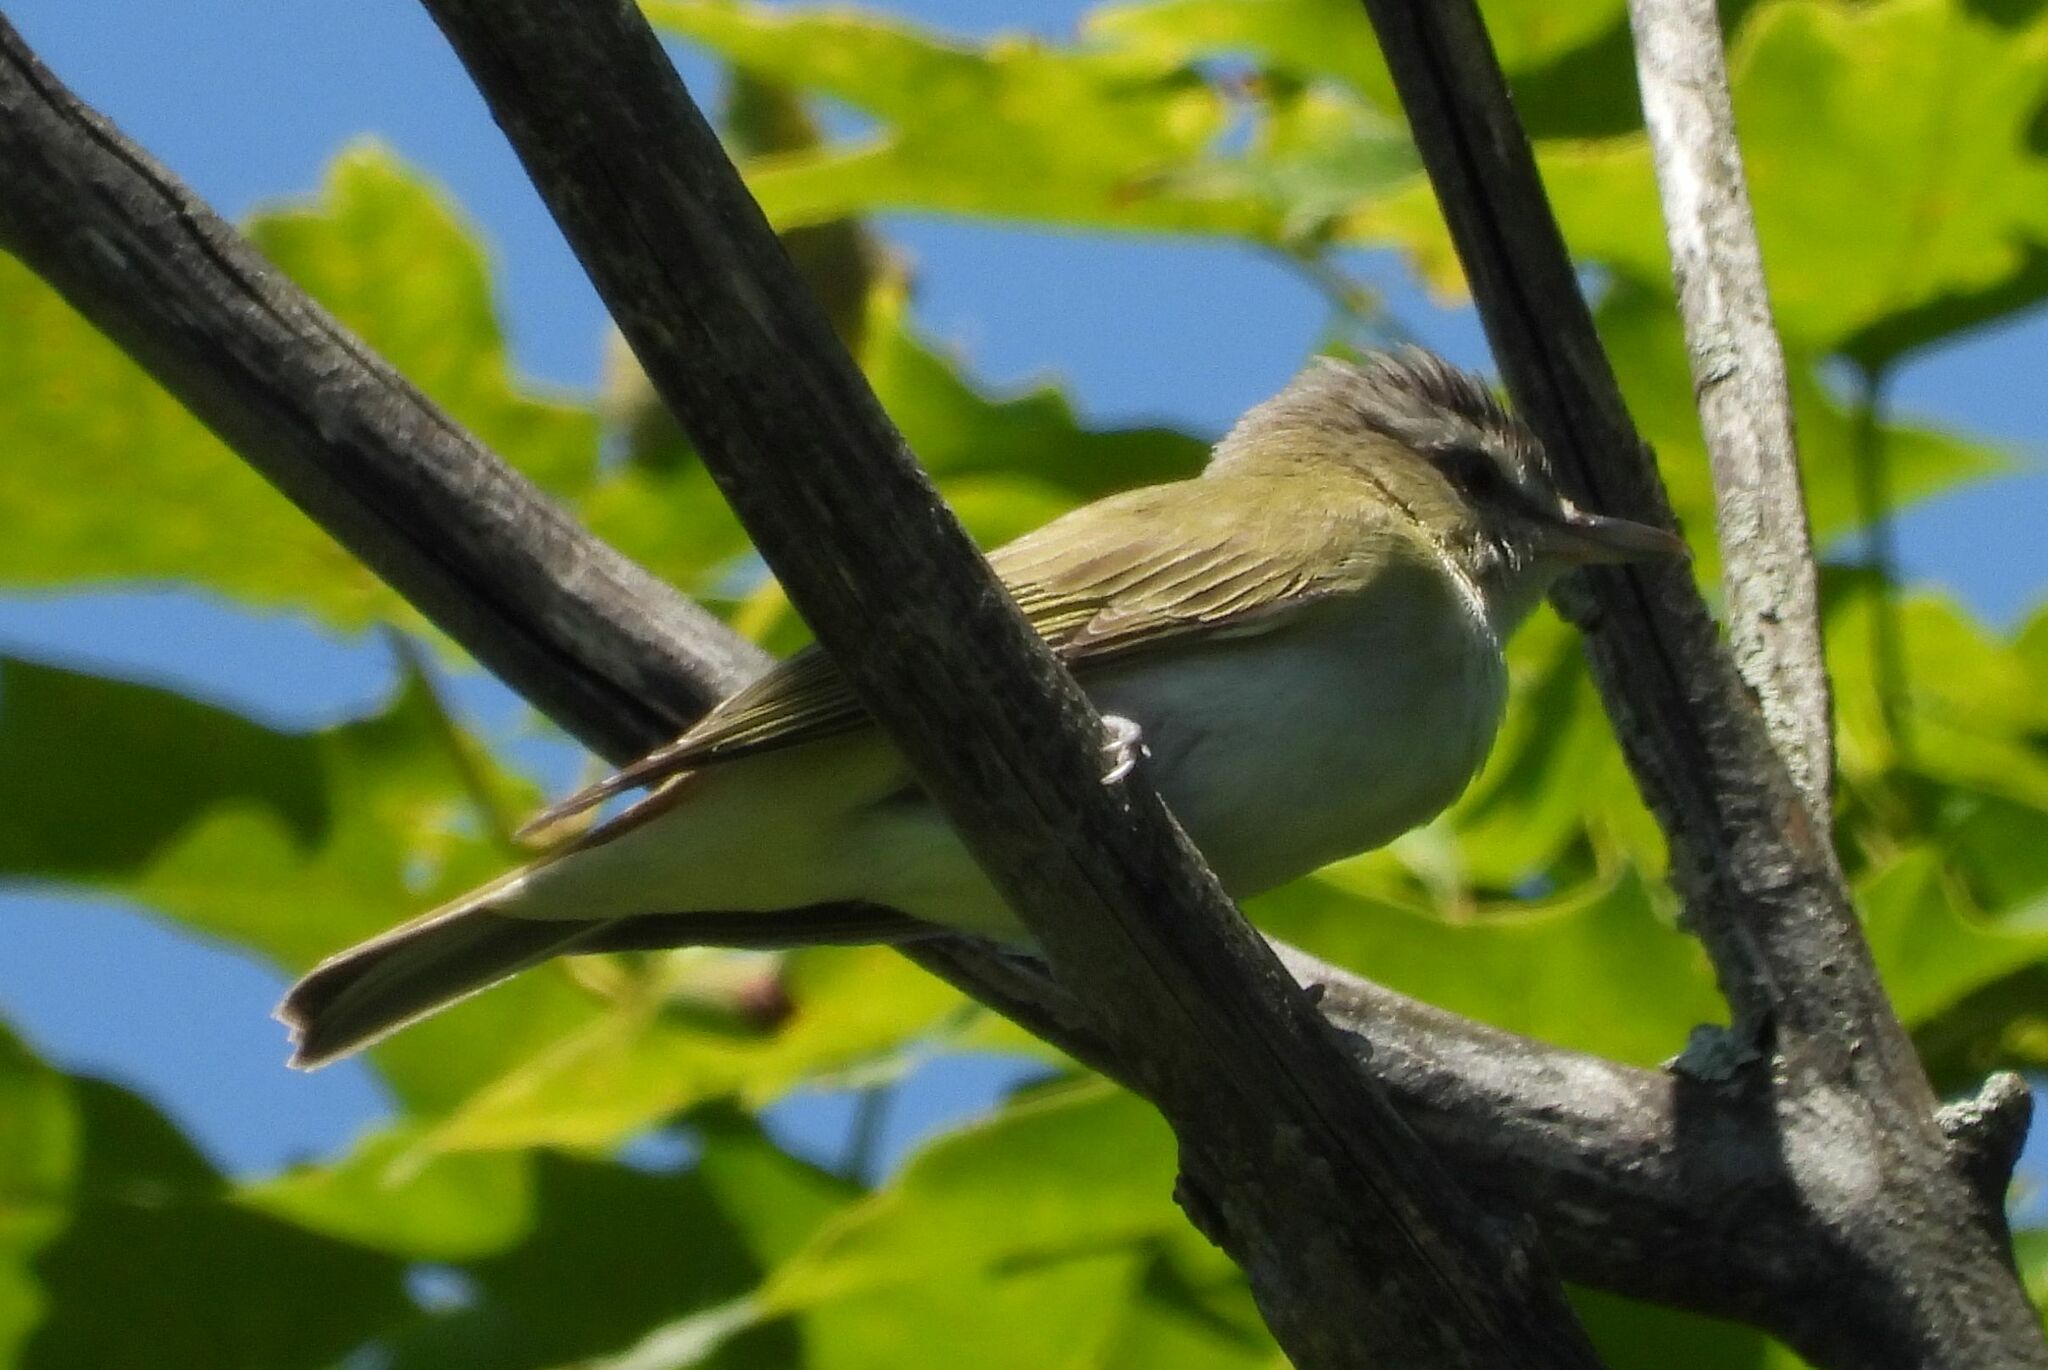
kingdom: Animalia
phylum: Chordata
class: Aves
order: Passeriformes
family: Vireonidae
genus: Vireo
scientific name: Vireo olivaceus
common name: Red-eyed vireo
